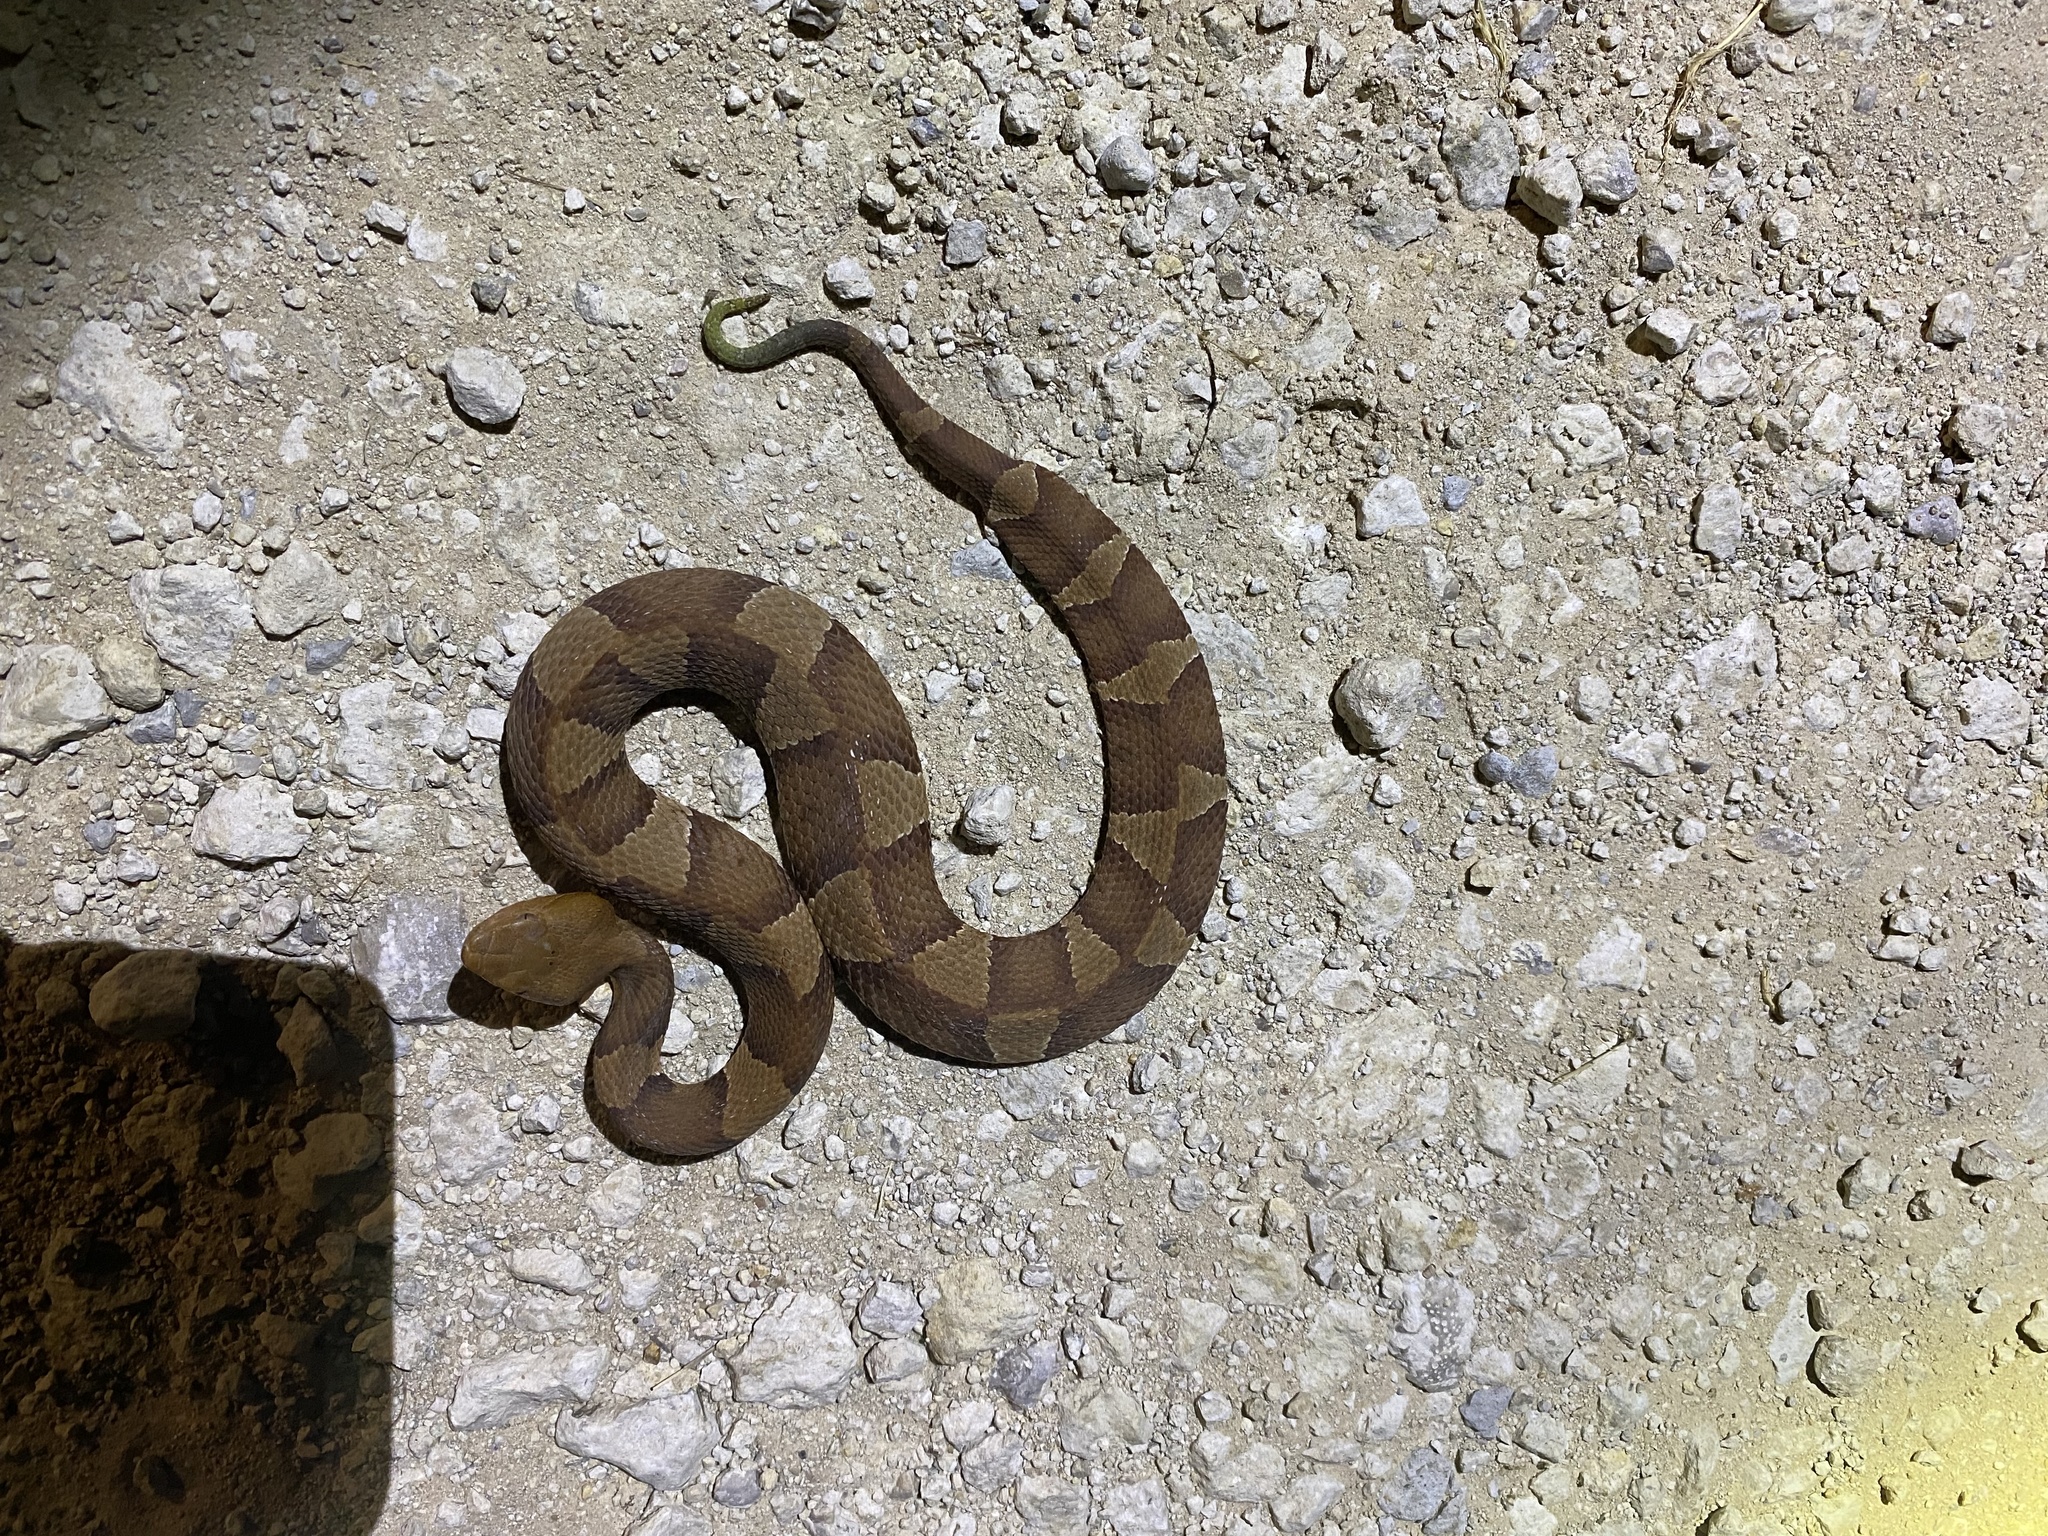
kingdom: Animalia
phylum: Chordata
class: Squamata
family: Viperidae
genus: Agkistrodon
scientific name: Agkistrodon laticinctus
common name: Broad-banded copperhead
